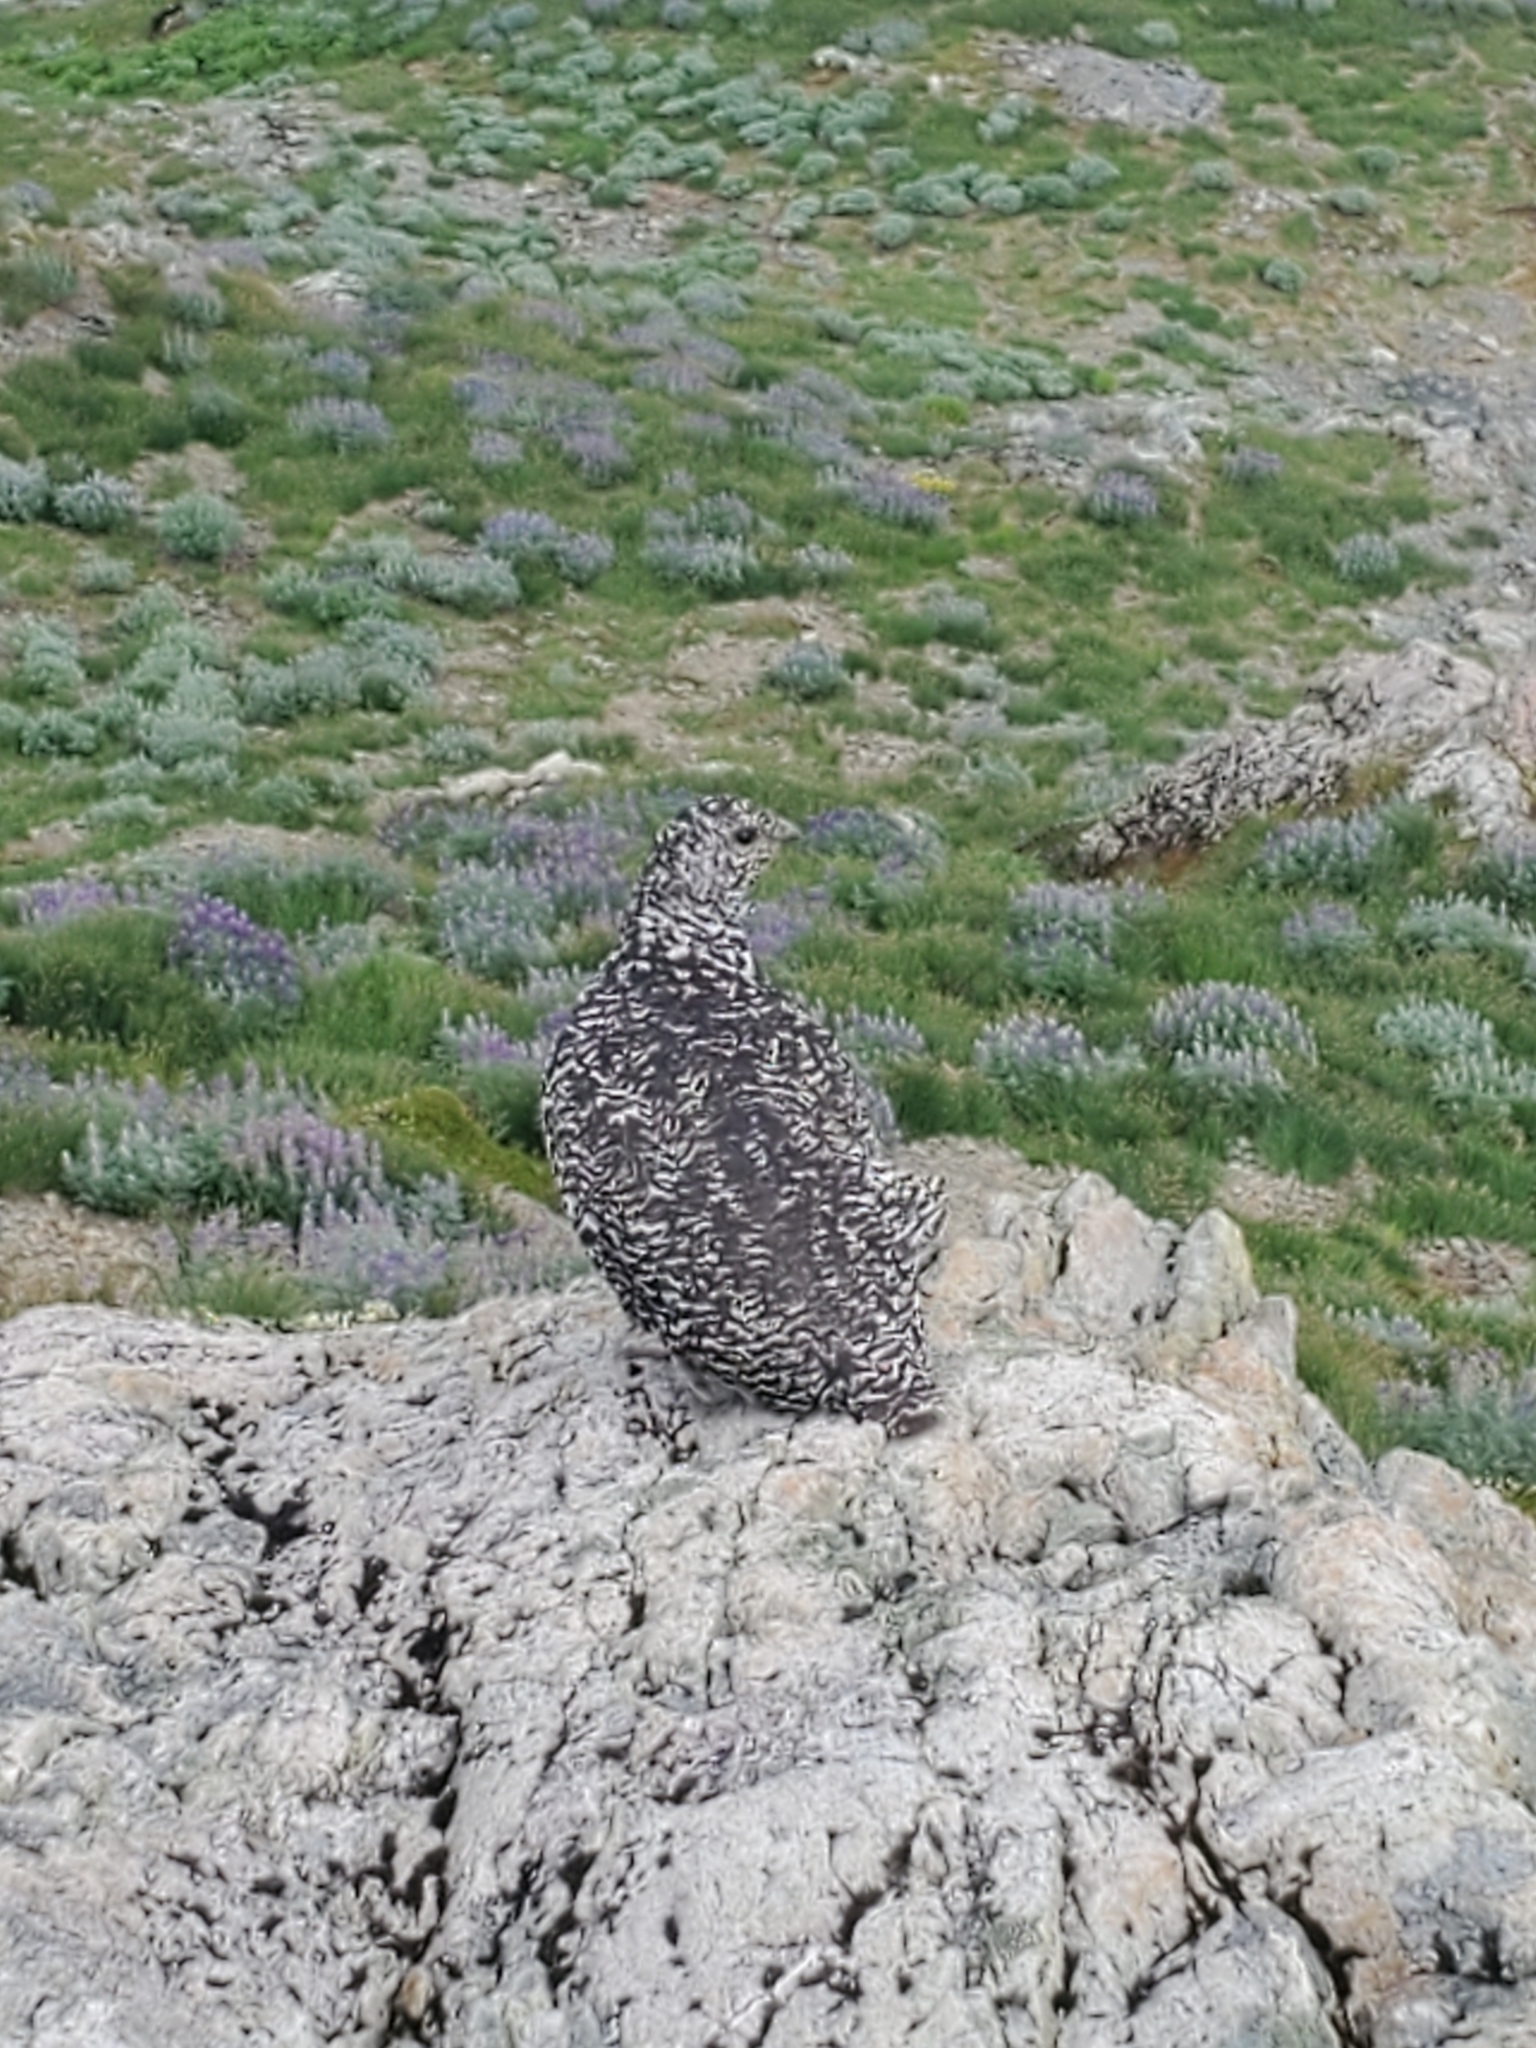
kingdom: Animalia
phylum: Chordata
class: Aves
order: Galliformes
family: Phasianidae
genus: Lagopus
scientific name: Lagopus leucura
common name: White-tailed ptarmigan
